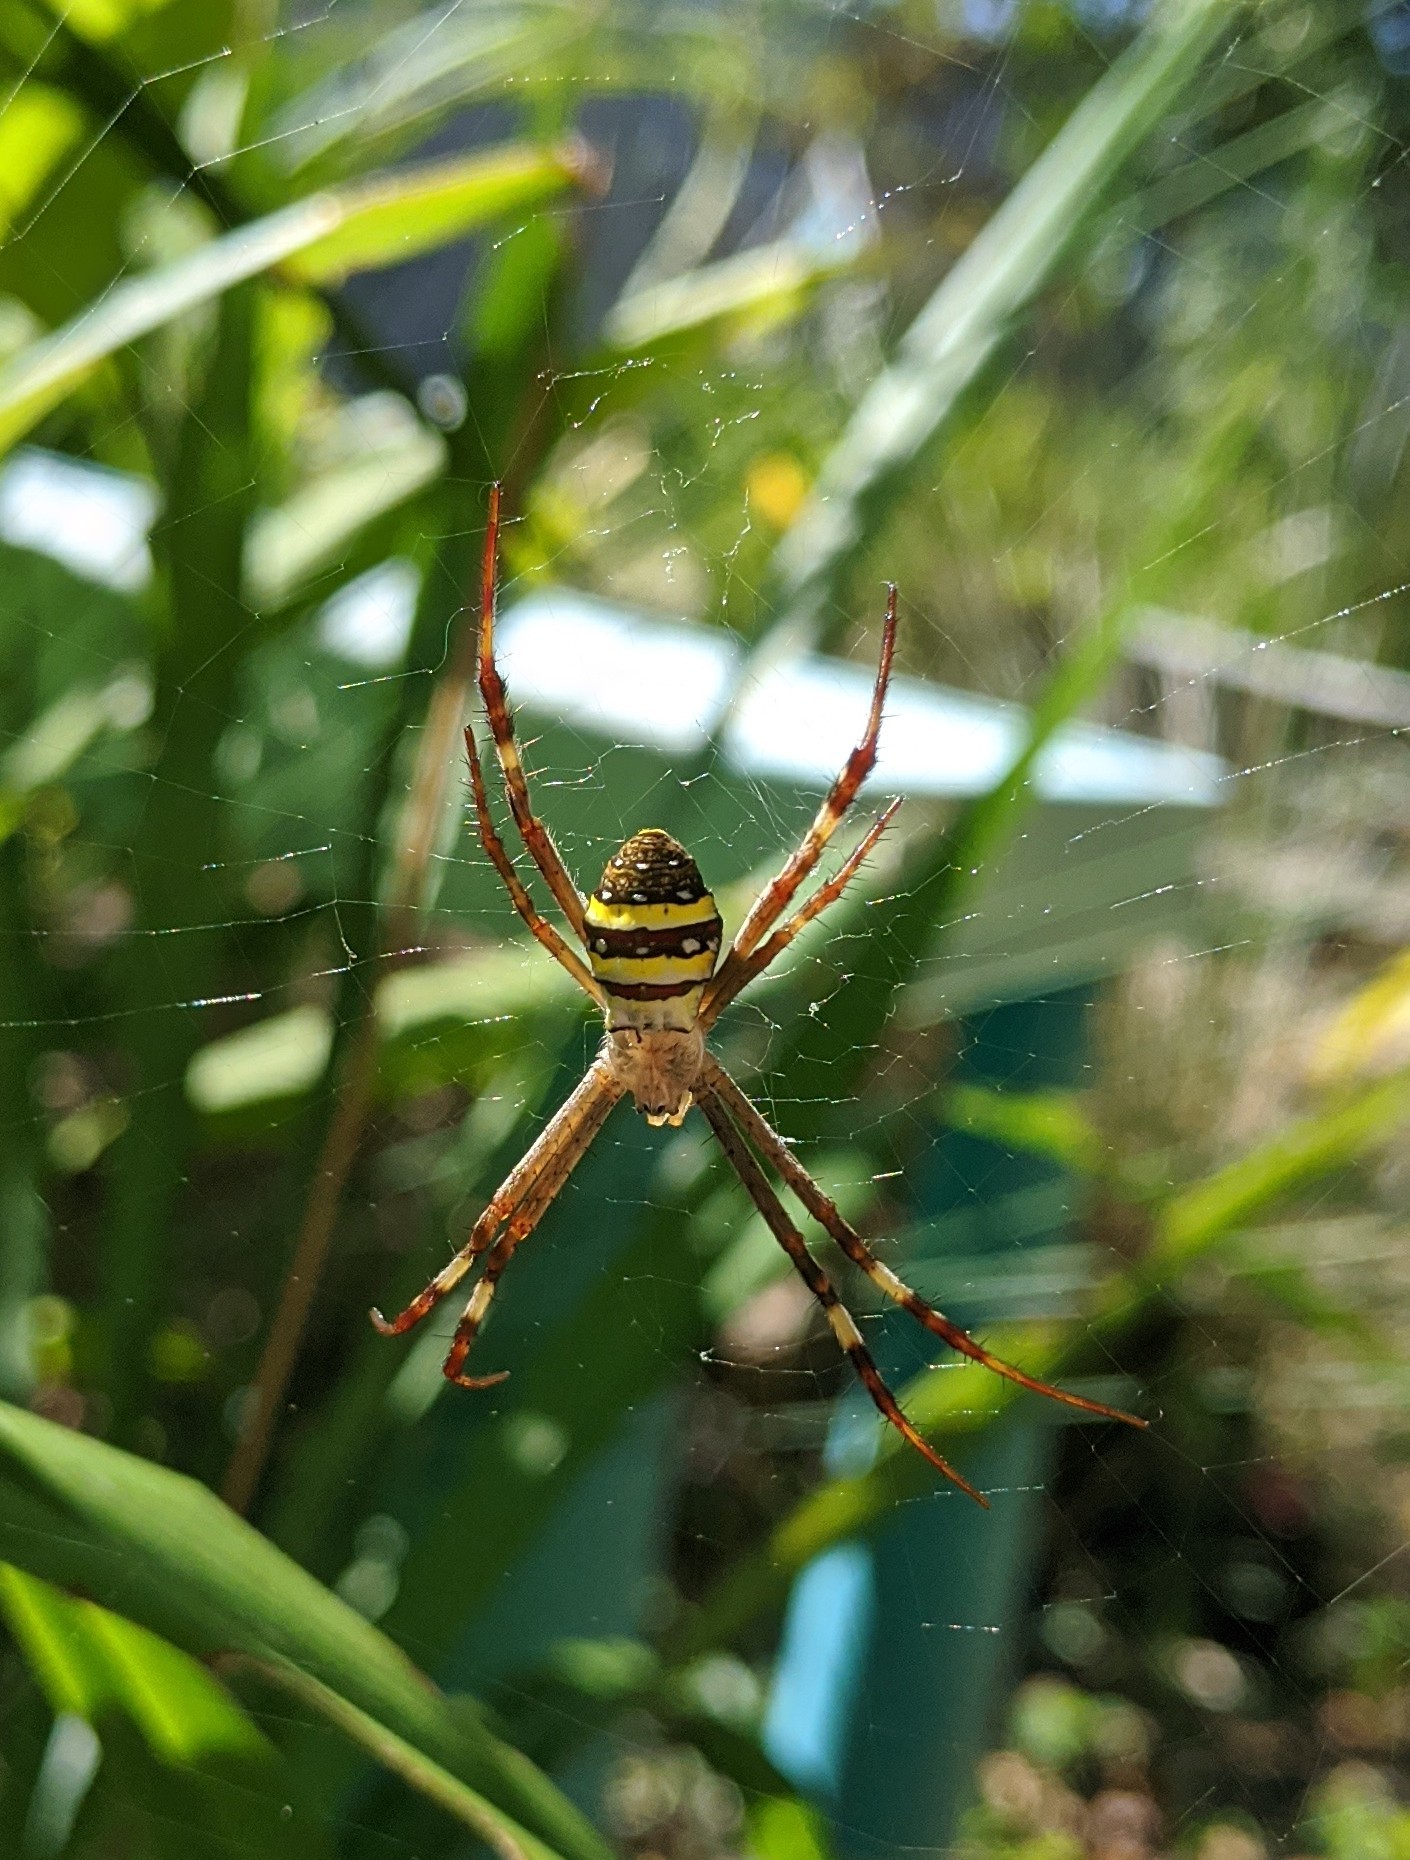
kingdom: Animalia
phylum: Arthropoda
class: Arachnida
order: Araneae
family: Araneidae
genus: Argiope
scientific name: Argiope keyserlingi
